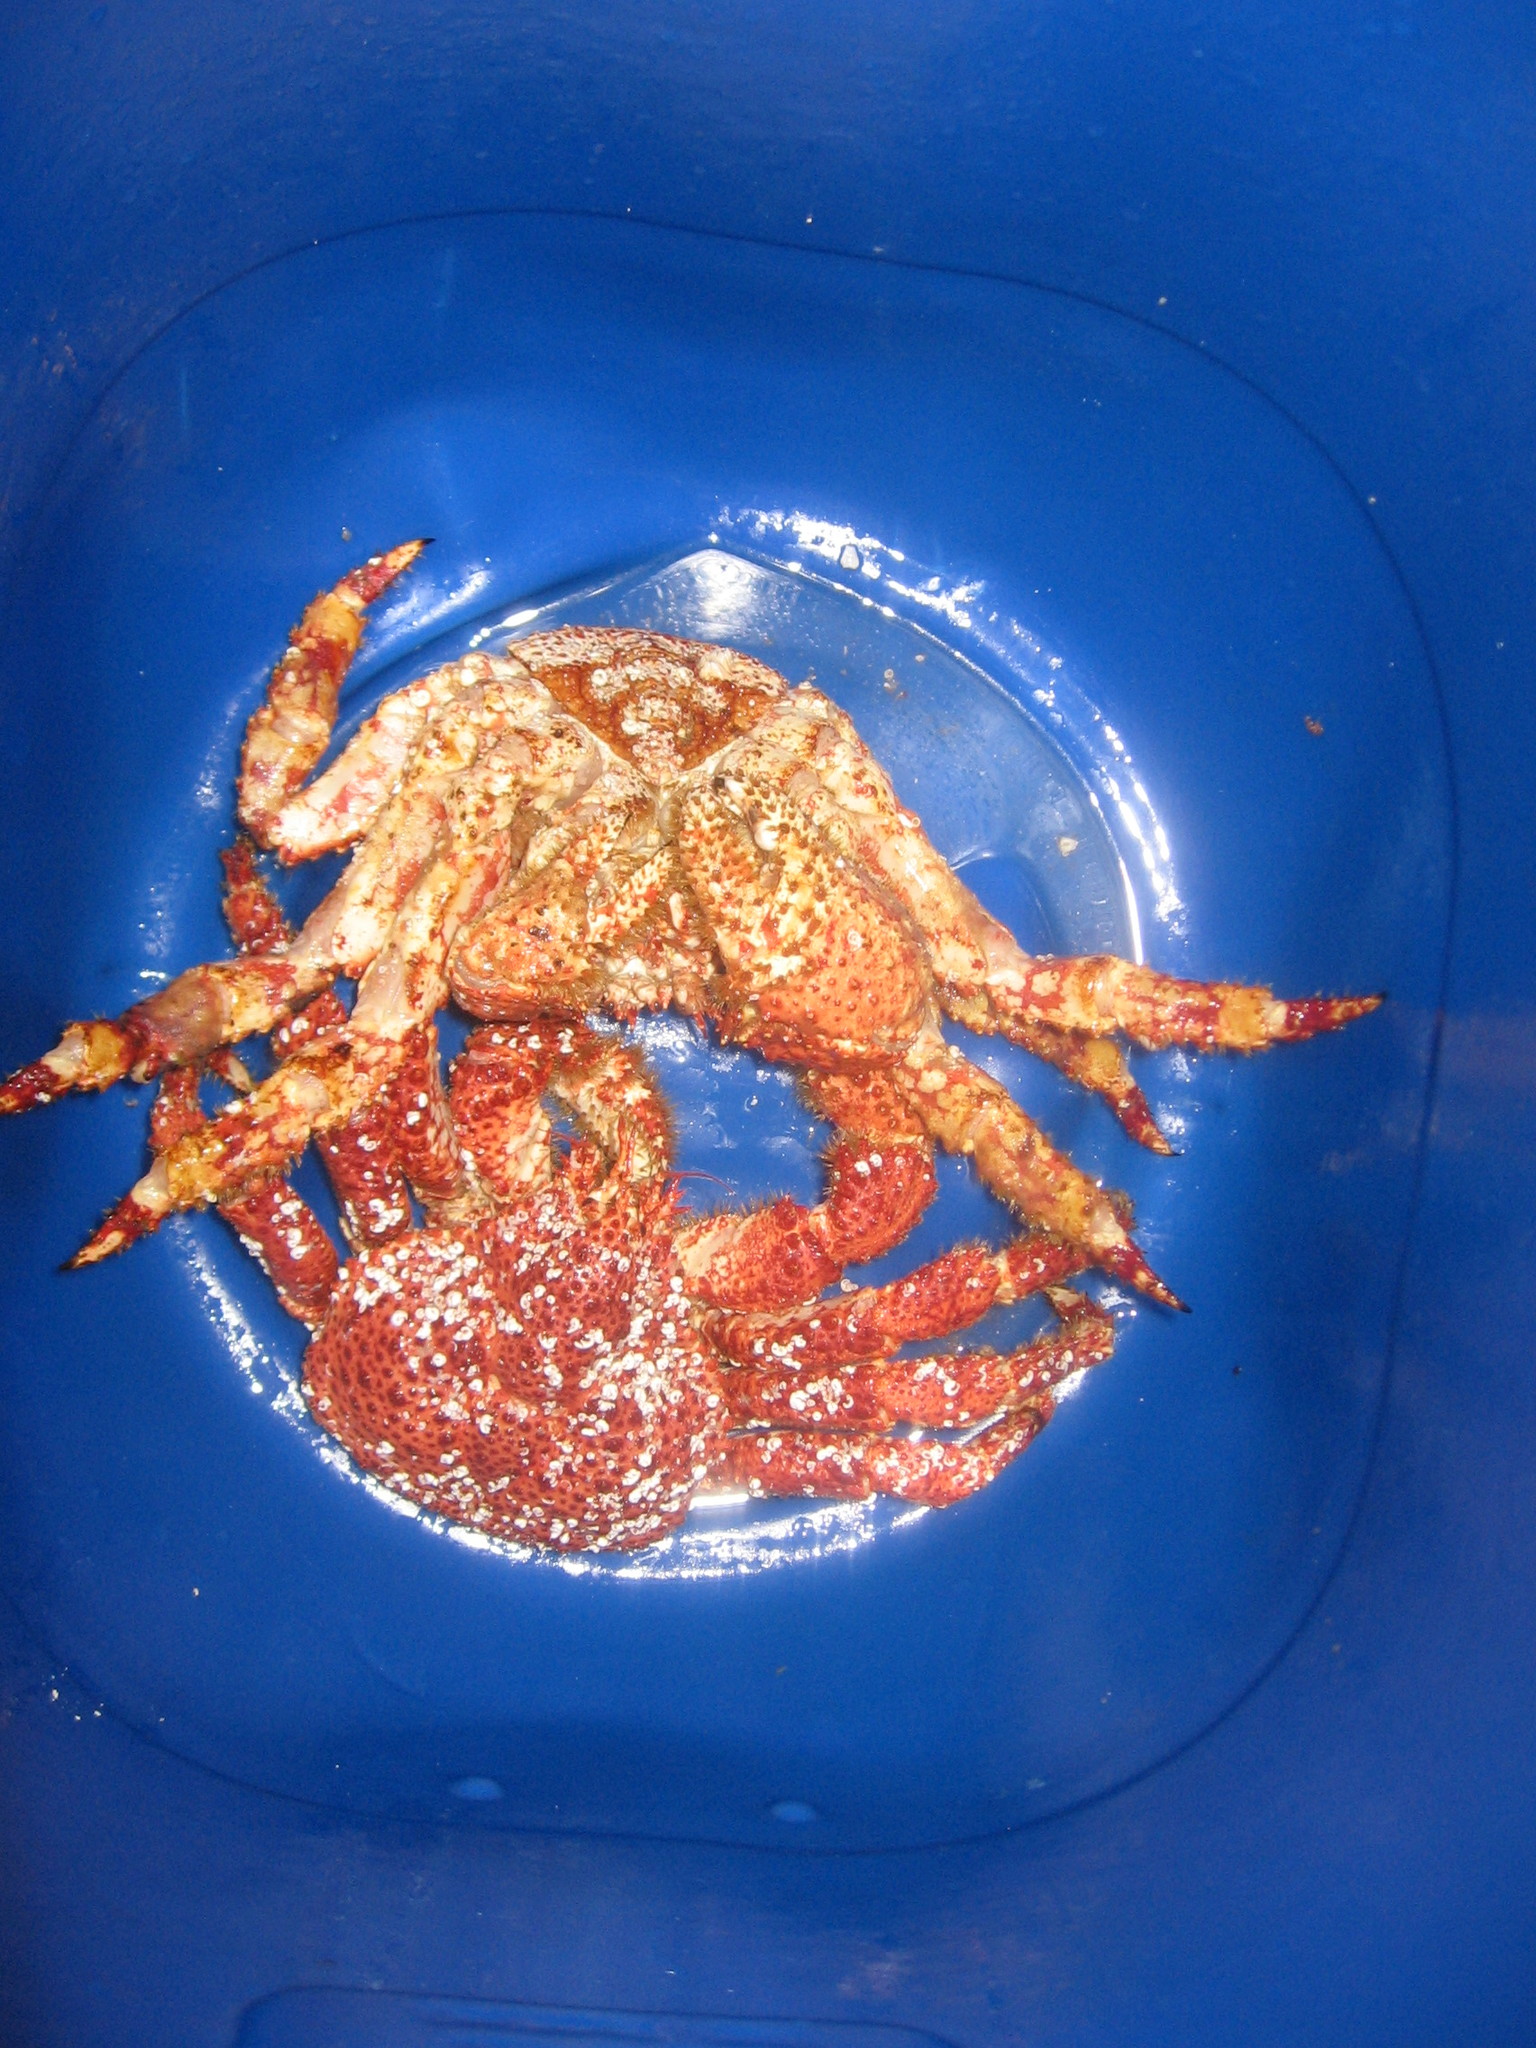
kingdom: Animalia
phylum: Arthropoda
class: Malacostraca
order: Decapoda
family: Lithodidae
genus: Paralomis
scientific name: Paralomis granulosa
